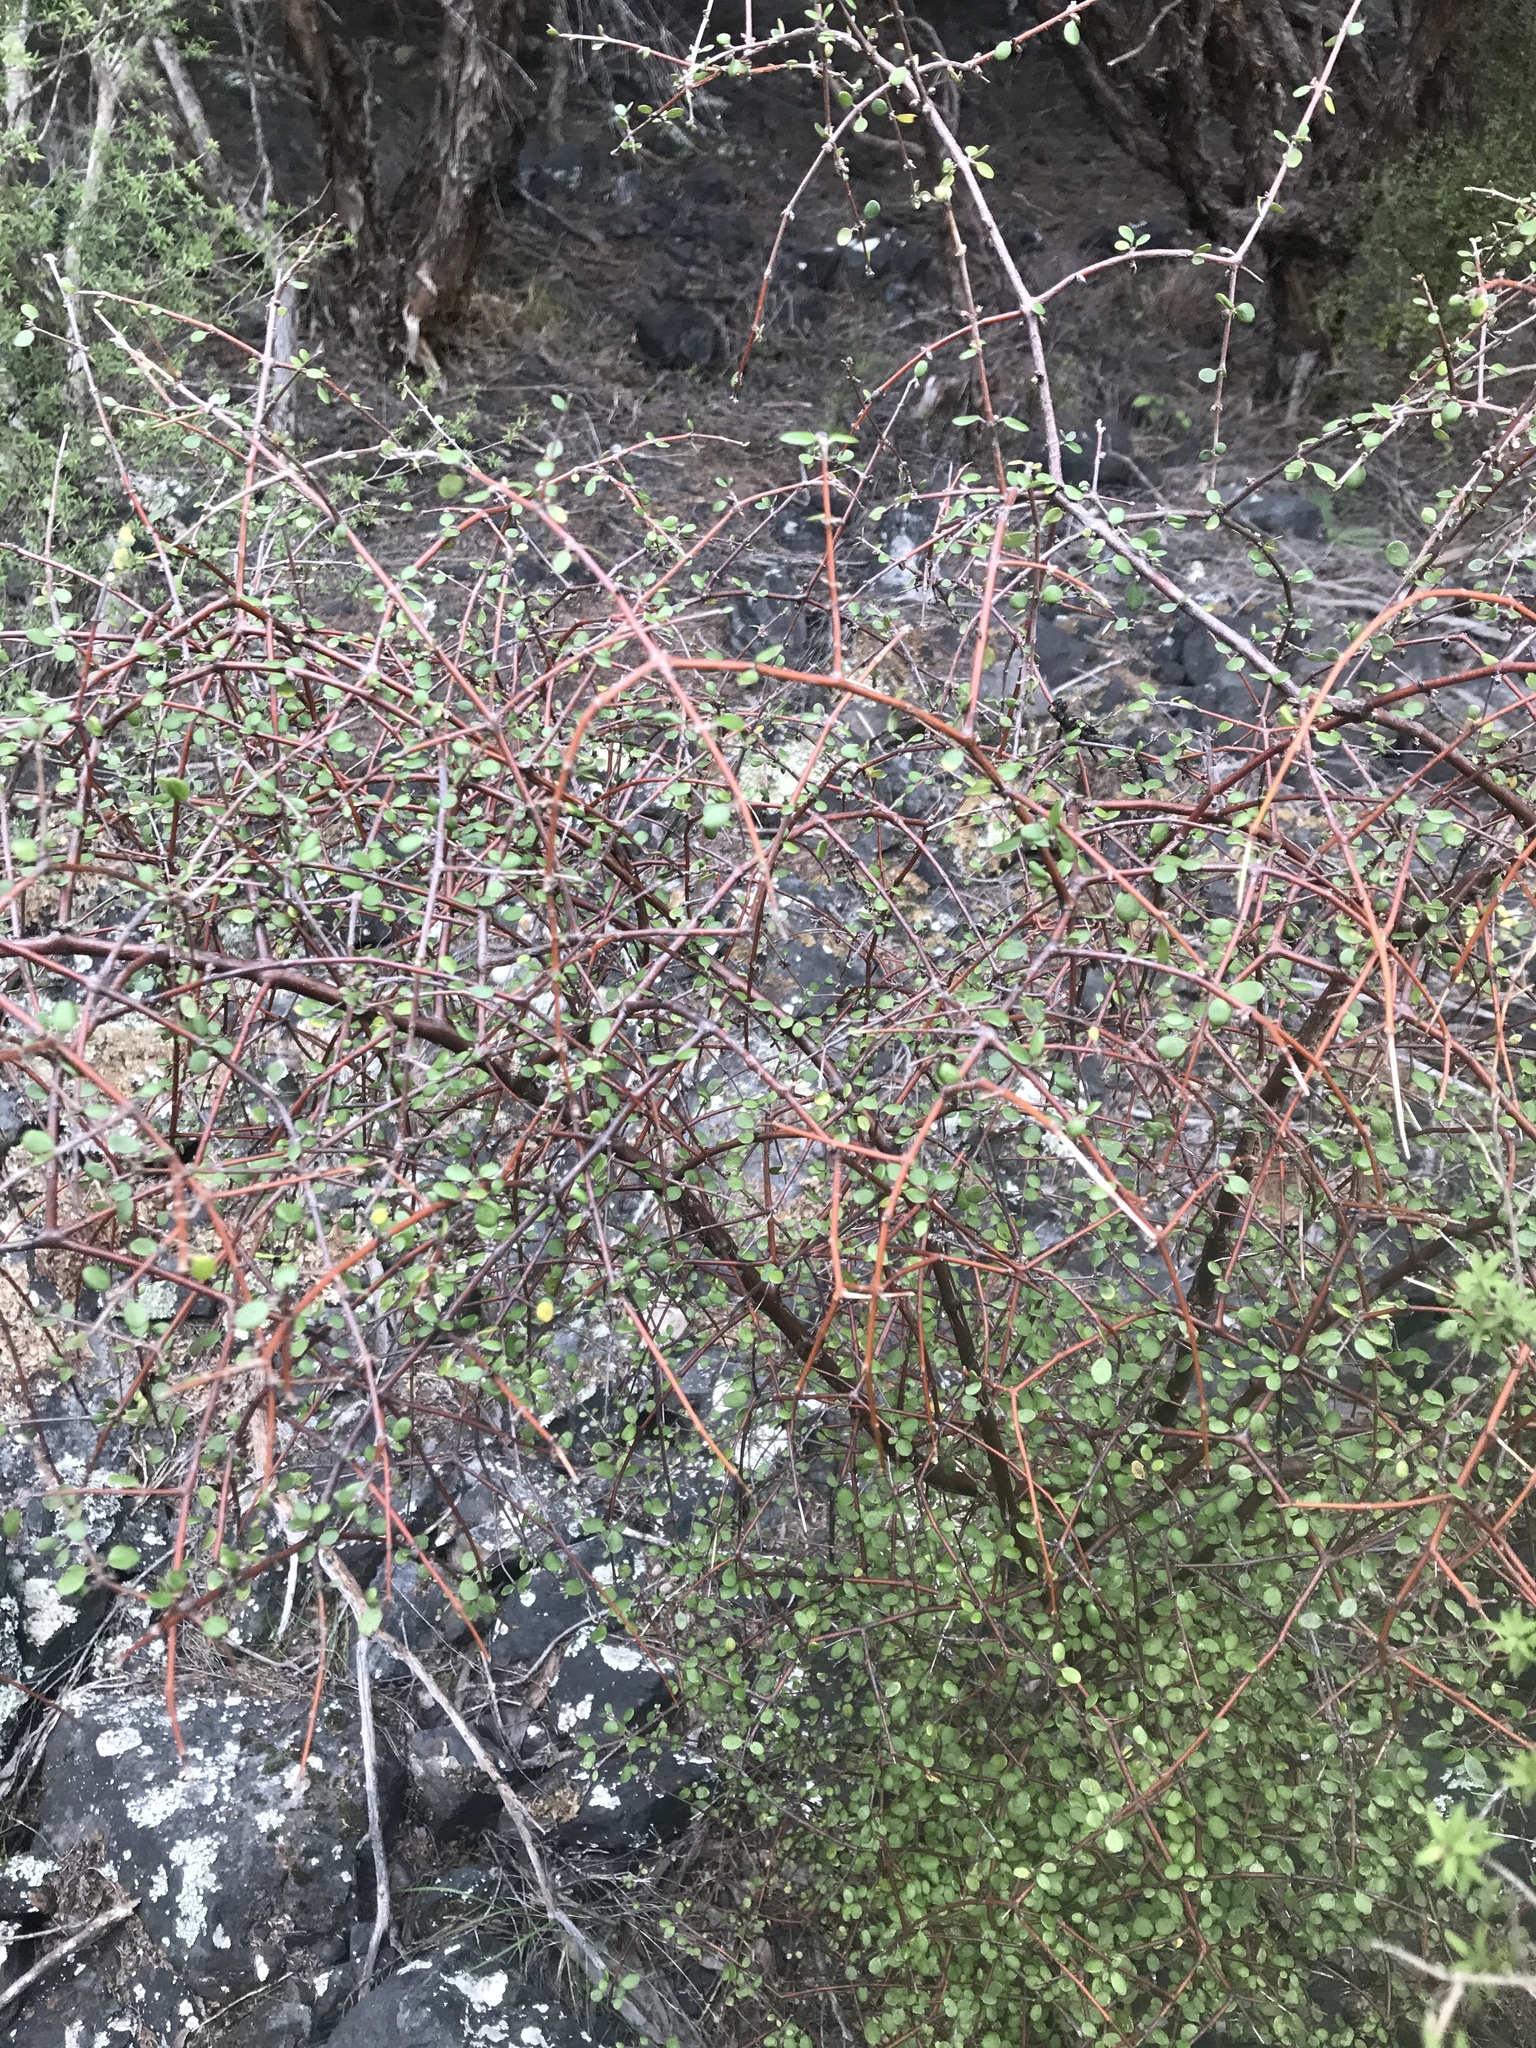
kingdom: Plantae
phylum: Tracheophyta
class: Magnoliopsida
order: Gentianales
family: Rubiaceae
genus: Coprosma
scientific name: Coprosma crassifolia
